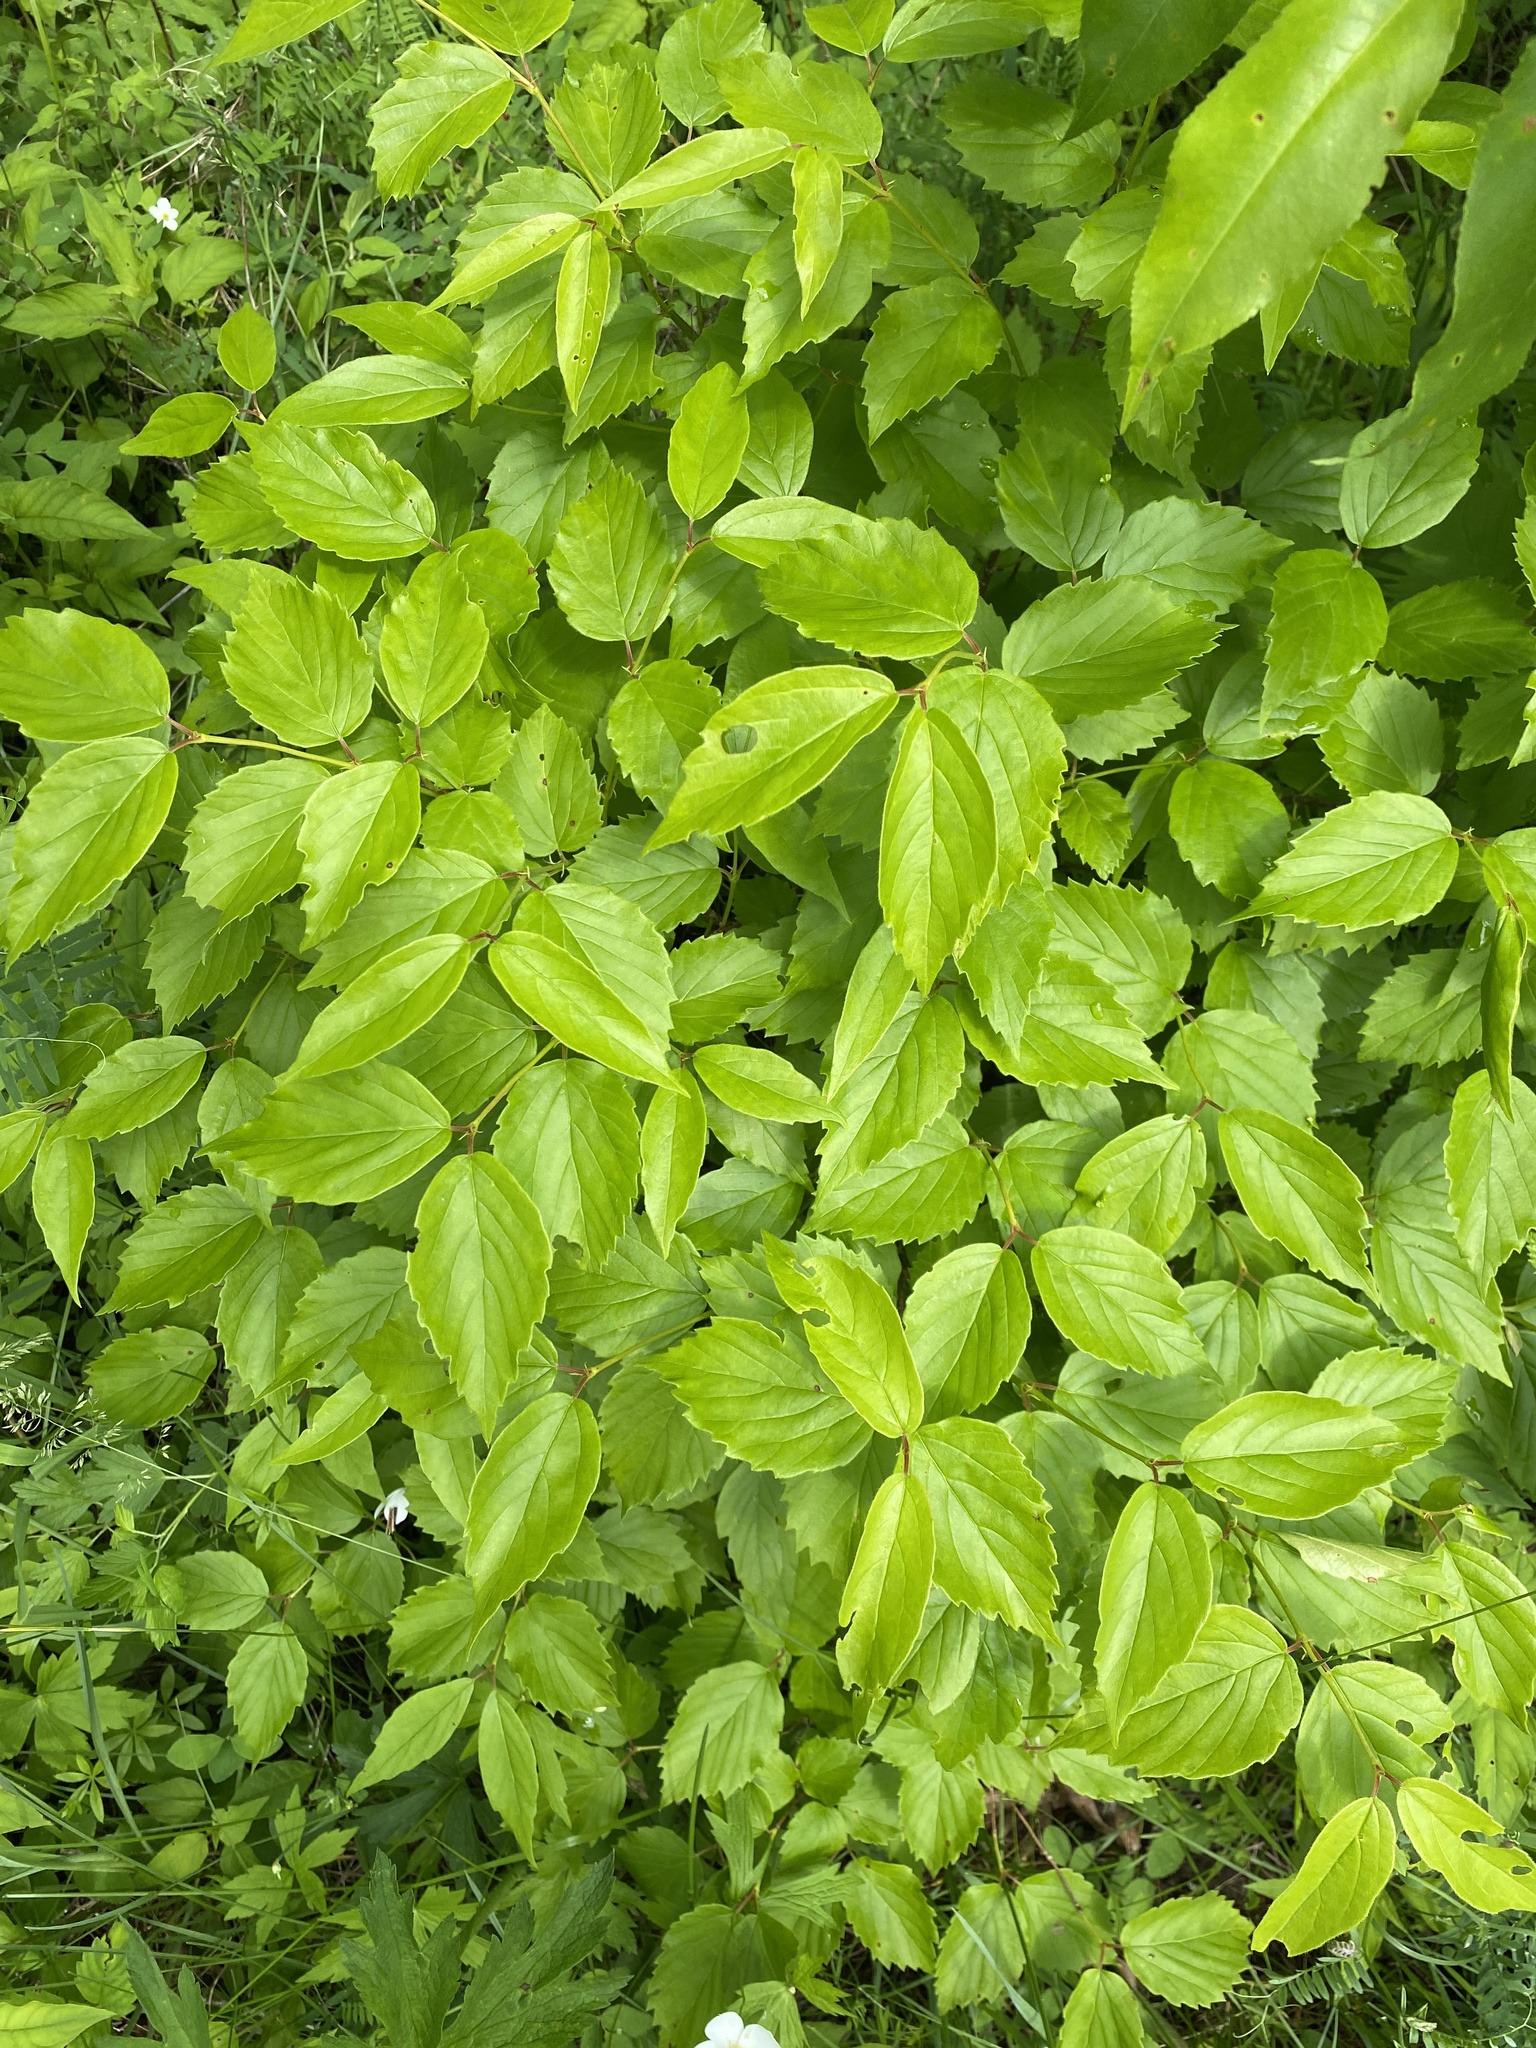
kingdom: Plantae
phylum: Tracheophyta
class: Magnoliopsida
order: Dipsacales
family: Viburnaceae
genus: Viburnum
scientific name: Viburnum rafinesqueanum
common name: Downy arrow-wood
